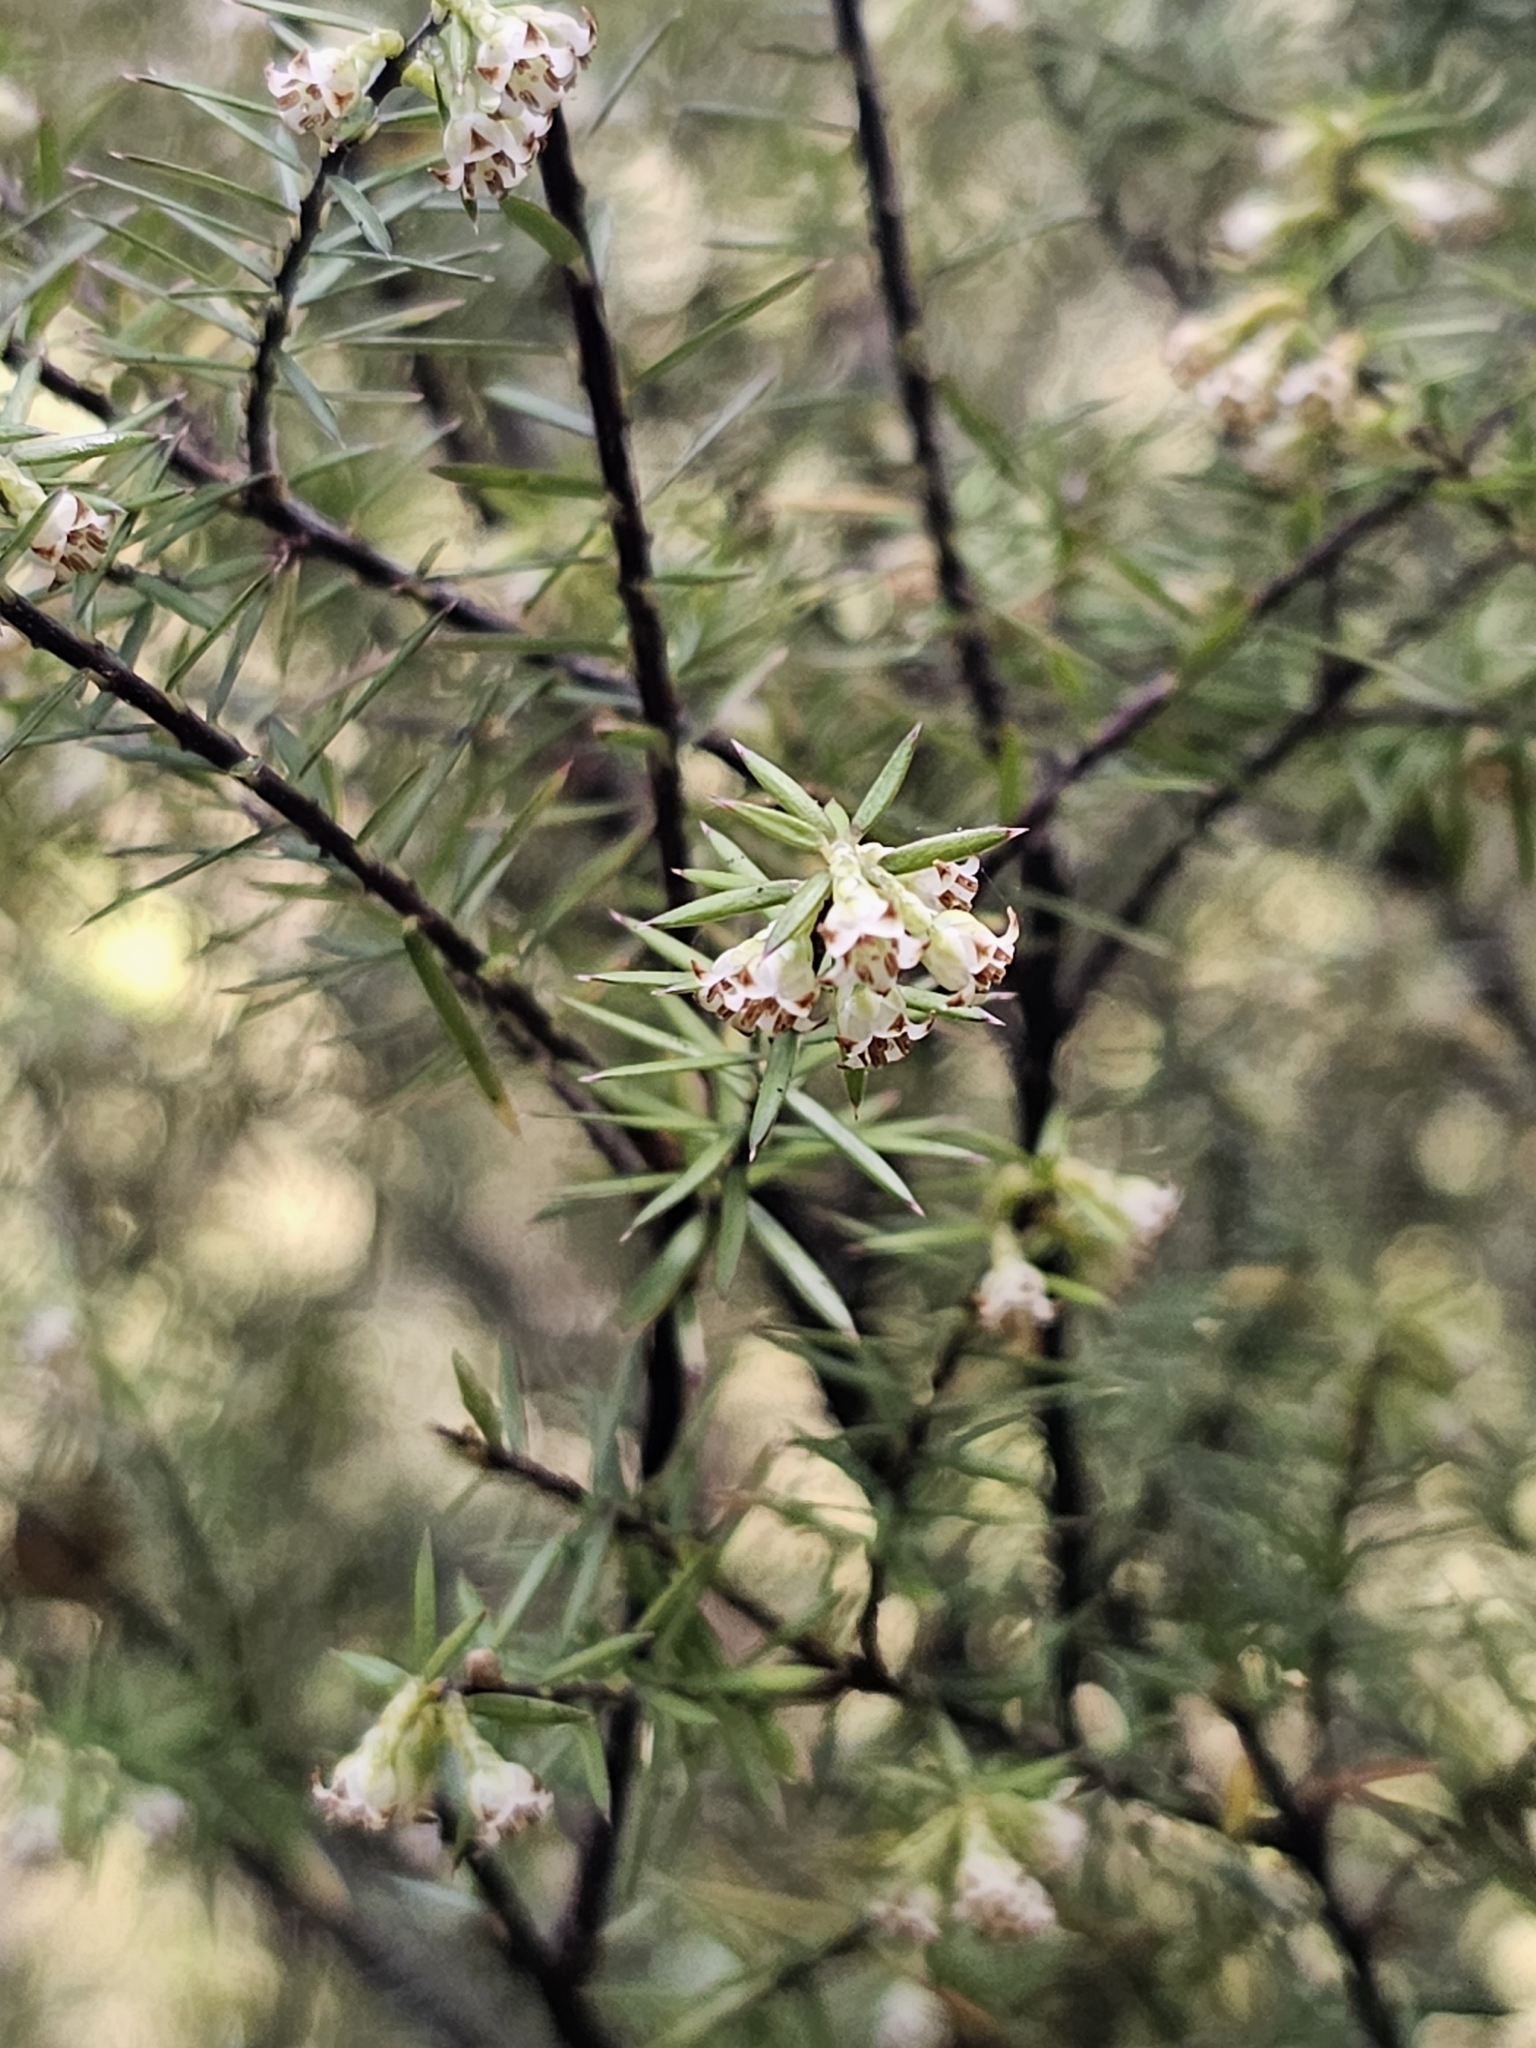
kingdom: Plantae
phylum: Tracheophyta
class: Magnoliopsida
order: Ericales
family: Ericaceae
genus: Leptecophylla
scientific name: Leptecophylla juniperina
